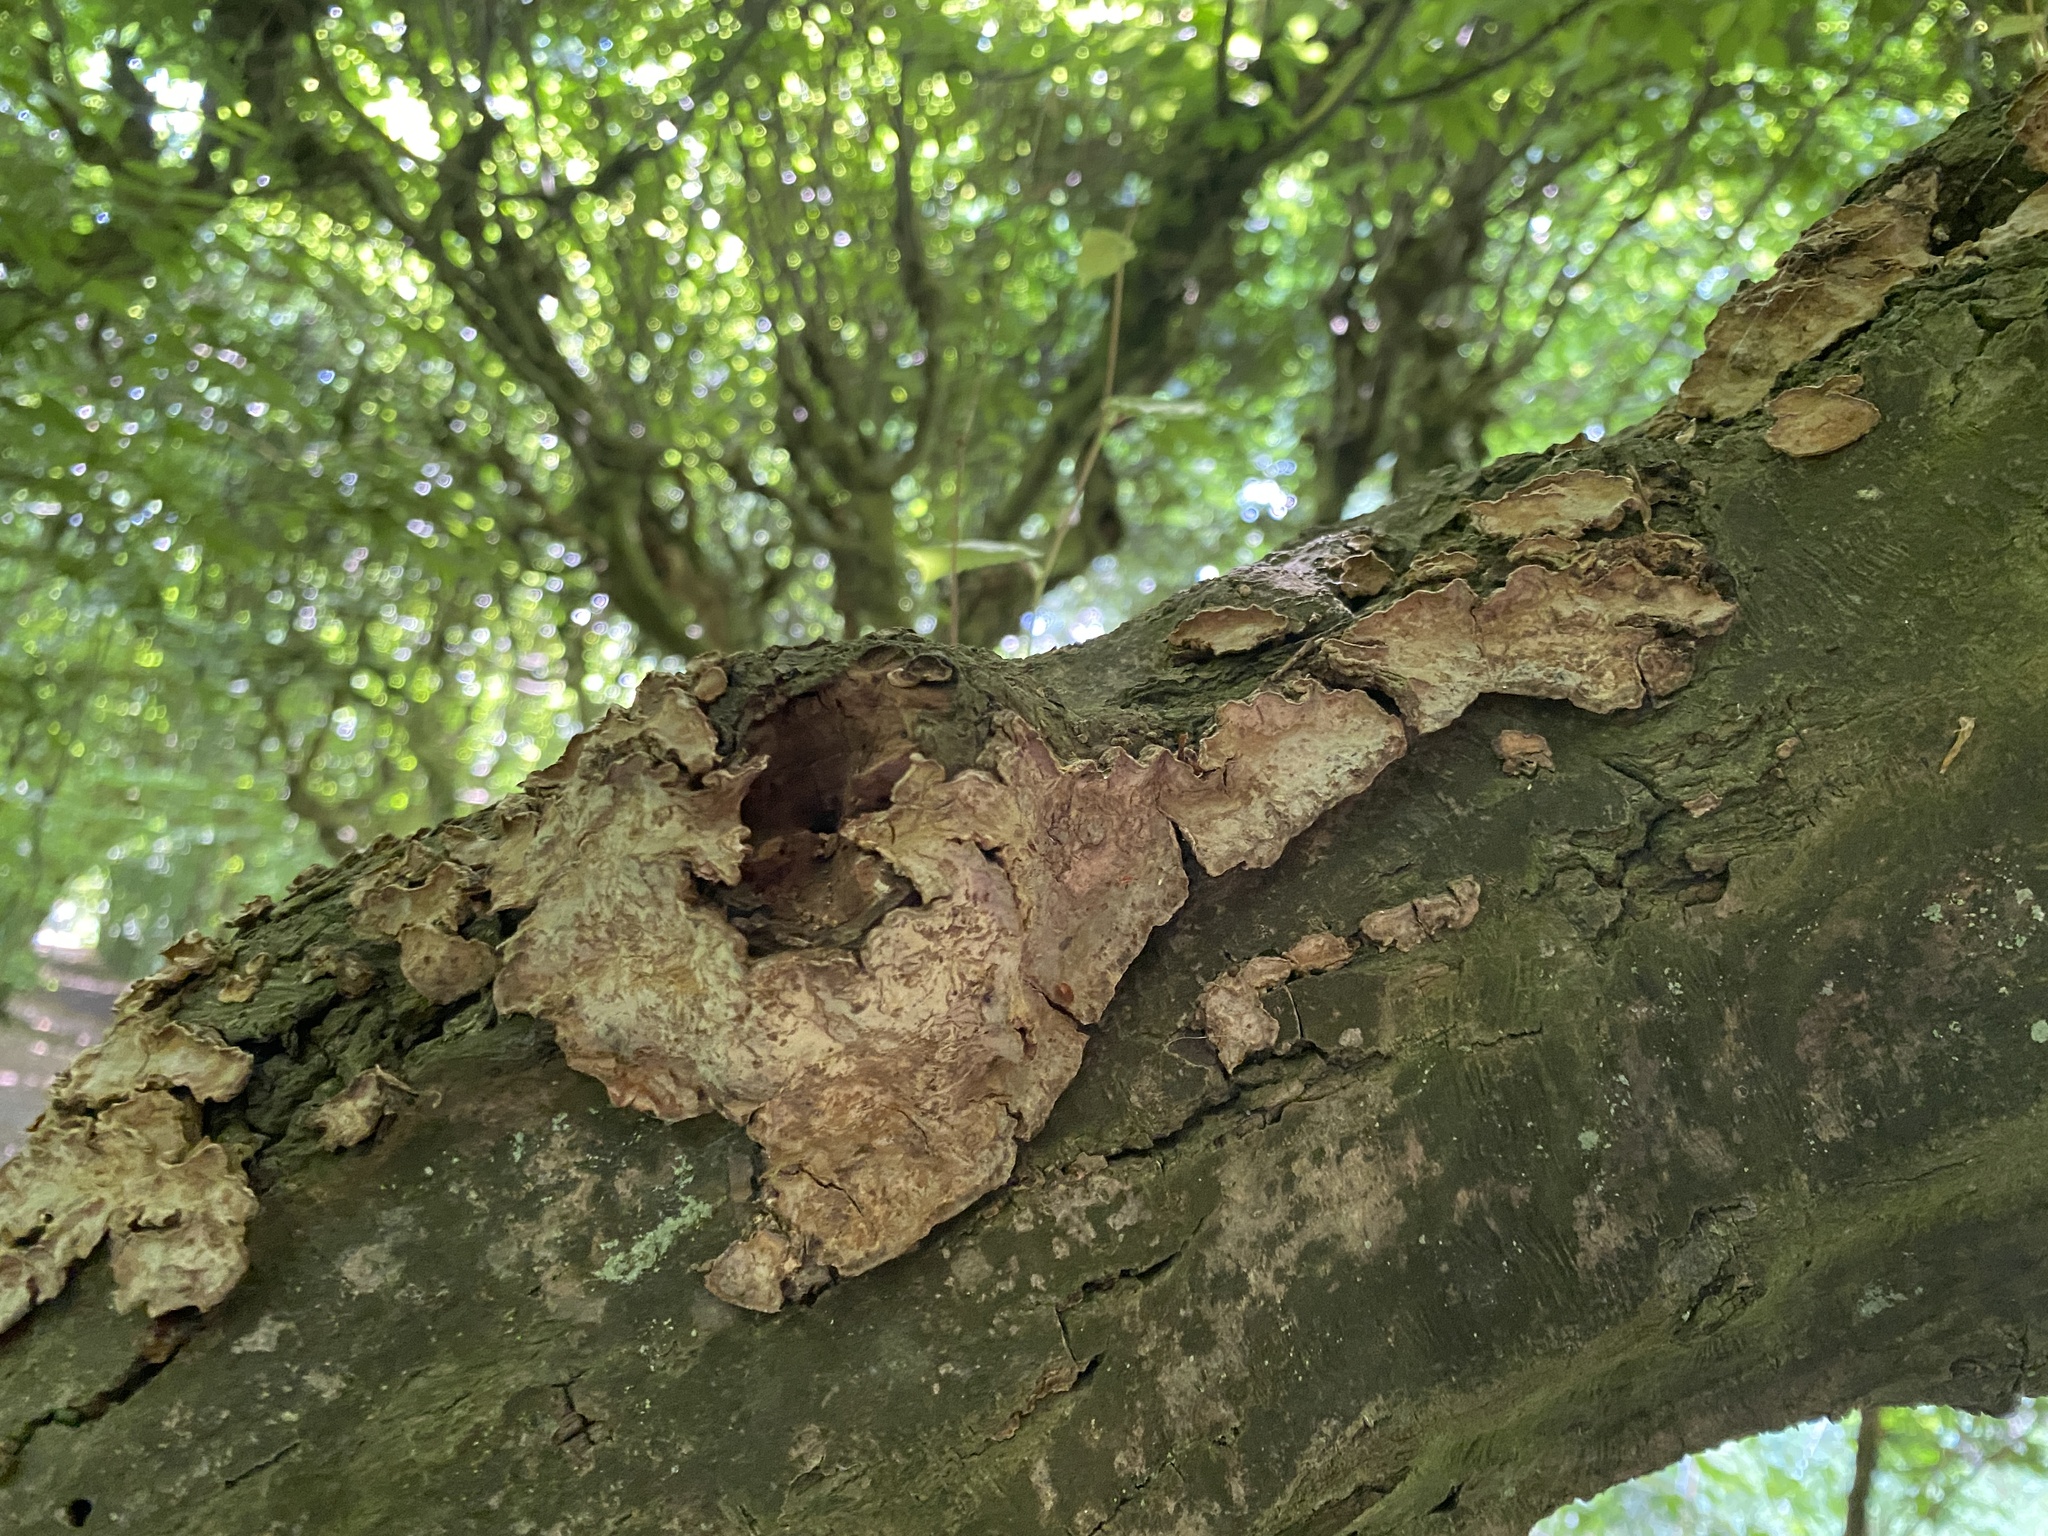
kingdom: Fungi
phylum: Basidiomycota
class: Agaricomycetes
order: Russulales
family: Stereaceae
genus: Stereum
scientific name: Stereum rugosum
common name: Bleeding broadleaf crust
